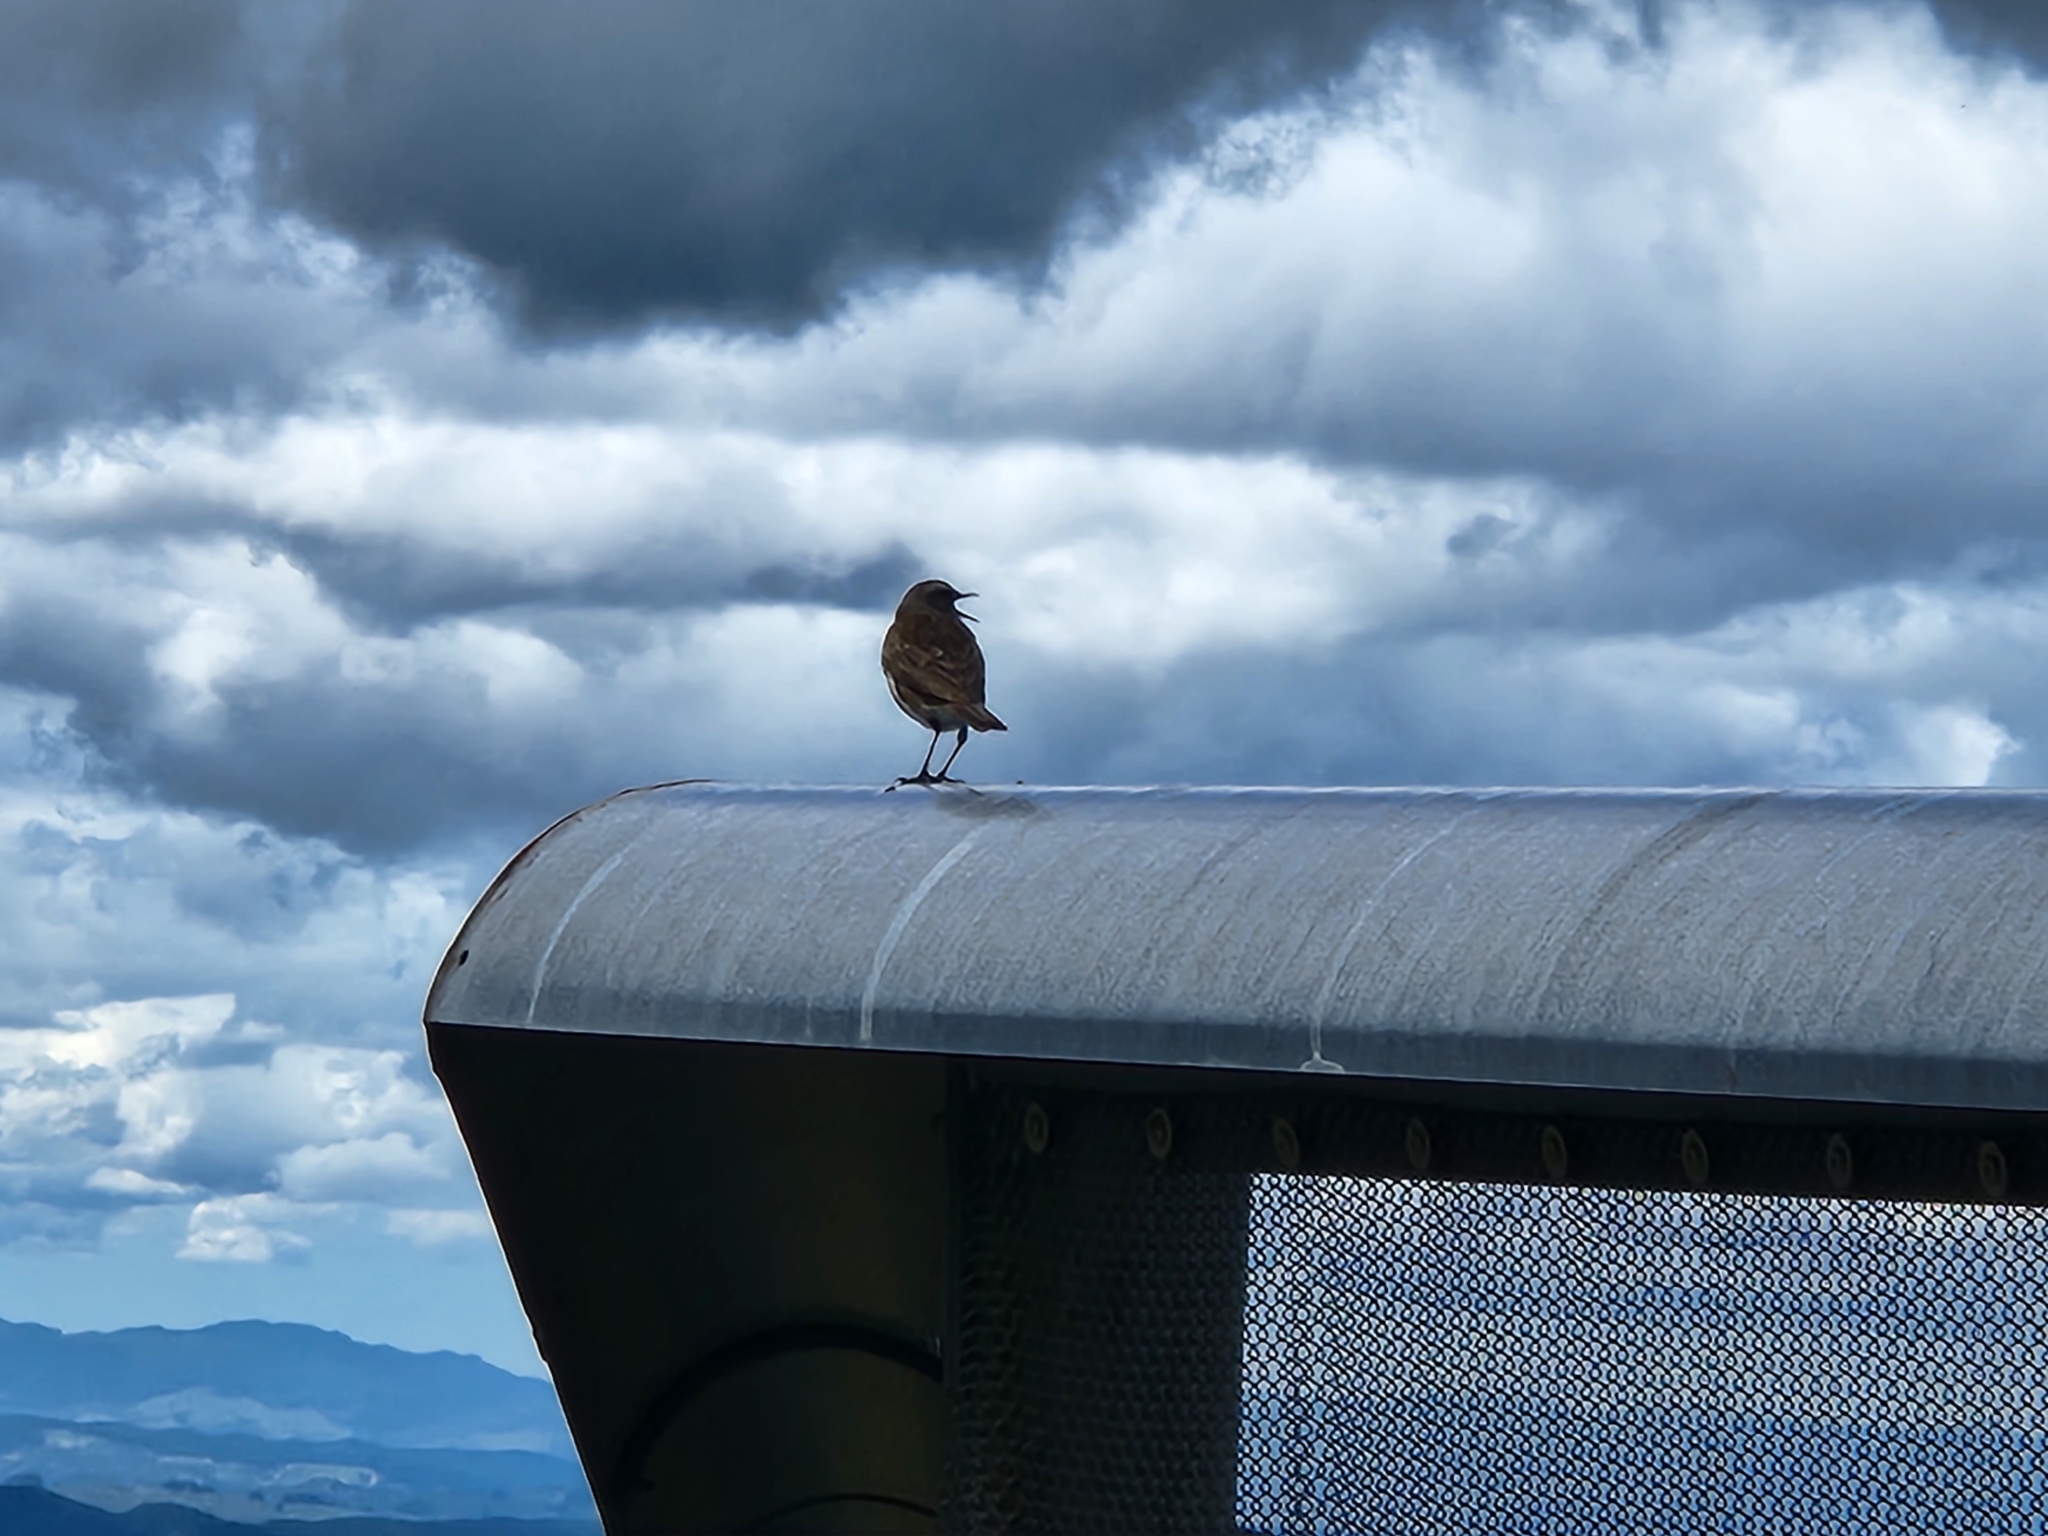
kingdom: Animalia
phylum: Chordata
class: Aves
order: Passeriformes
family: Motacillidae
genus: Anthus
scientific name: Anthus novaeseelandiae
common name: New zealand pipit
